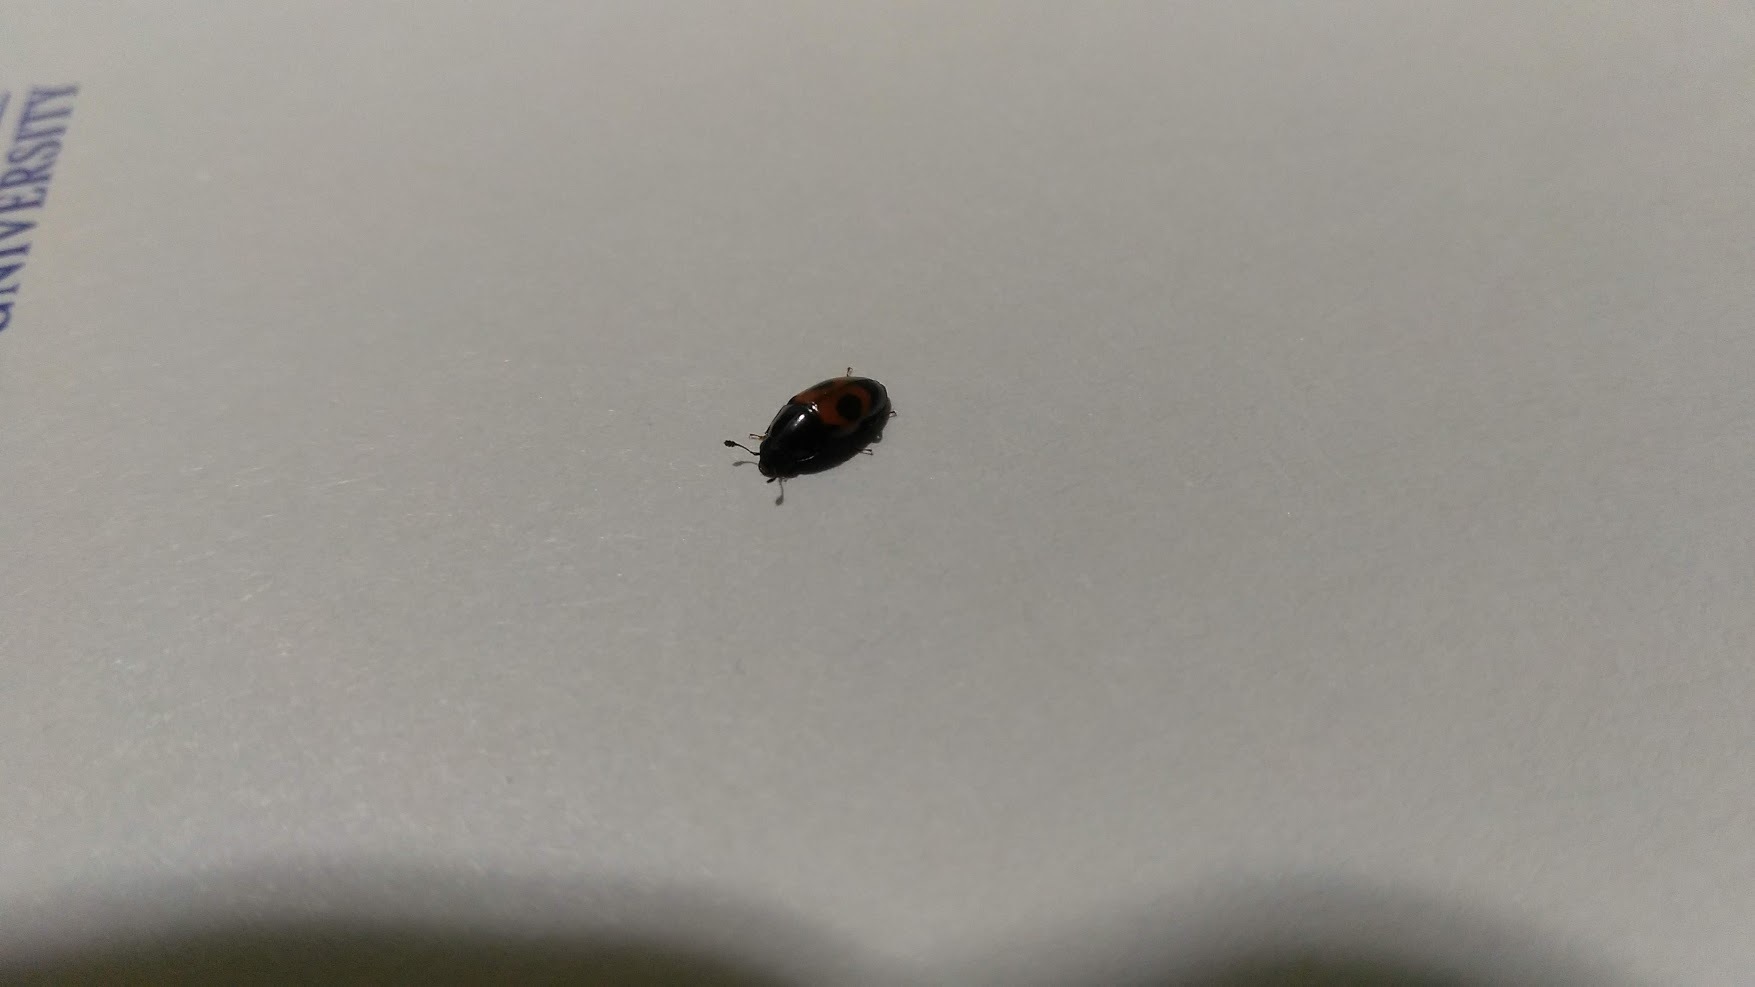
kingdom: Animalia
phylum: Arthropoda
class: Insecta
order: Coleoptera
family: Nitidulidae
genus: Glischrochilus
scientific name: Glischrochilus sanguinolentus
